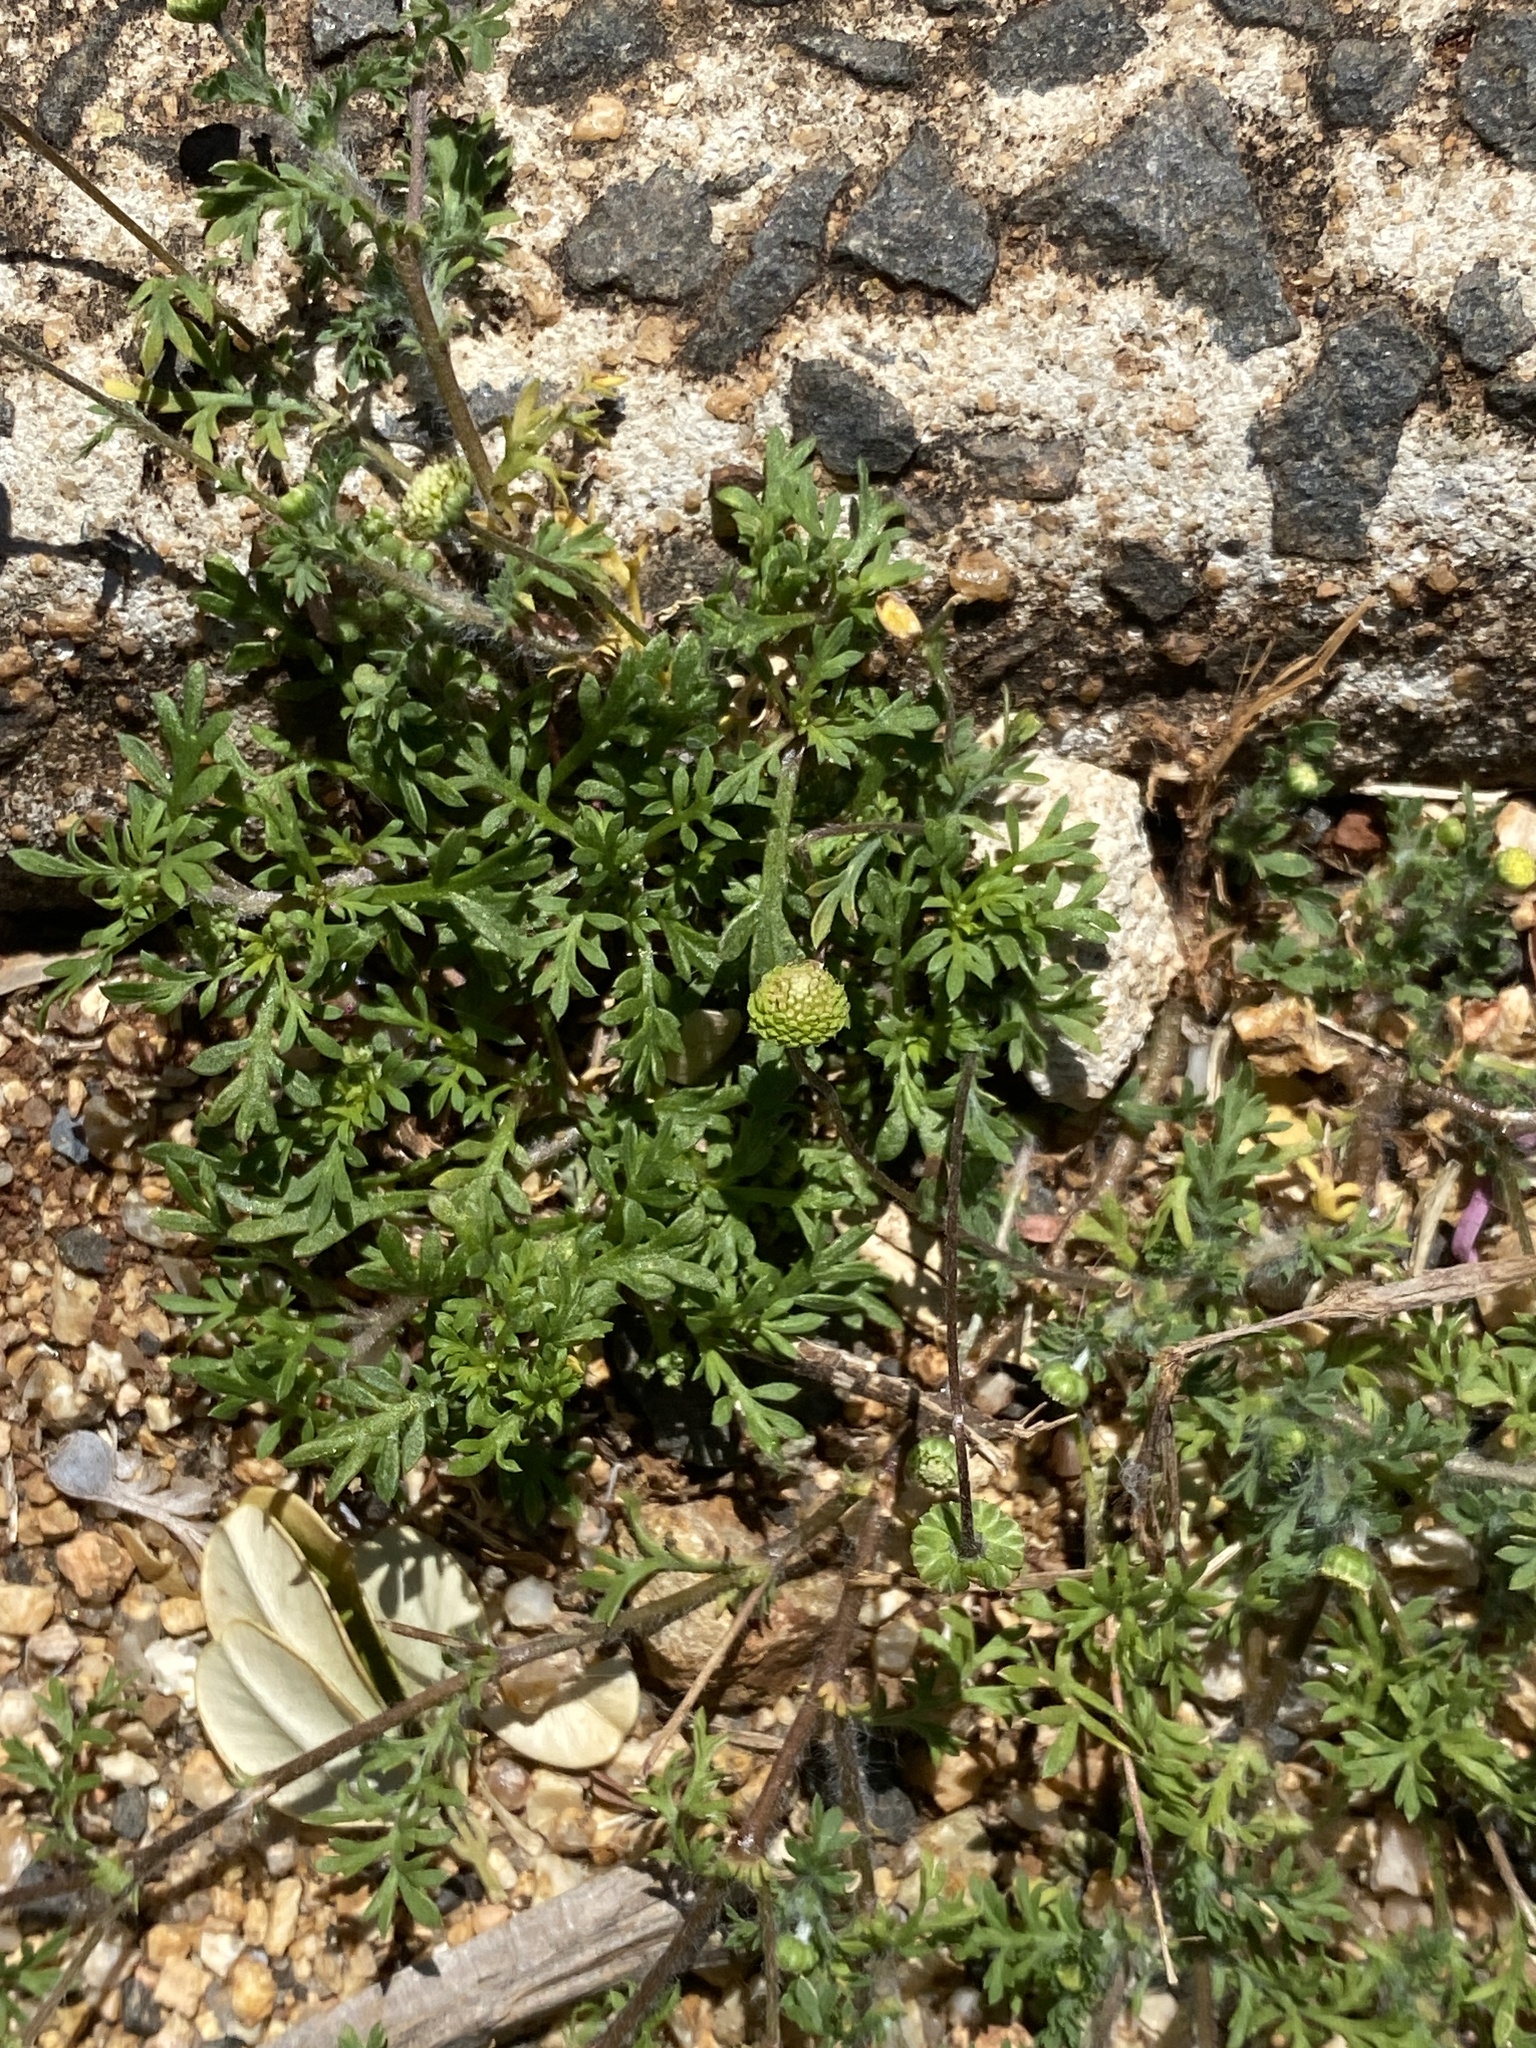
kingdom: Plantae
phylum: Tracheophyta
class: Magnoliopsida
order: Asterales
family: Asteraceae
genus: Cotula
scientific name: Cotula australis
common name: Australian waterbuttons
